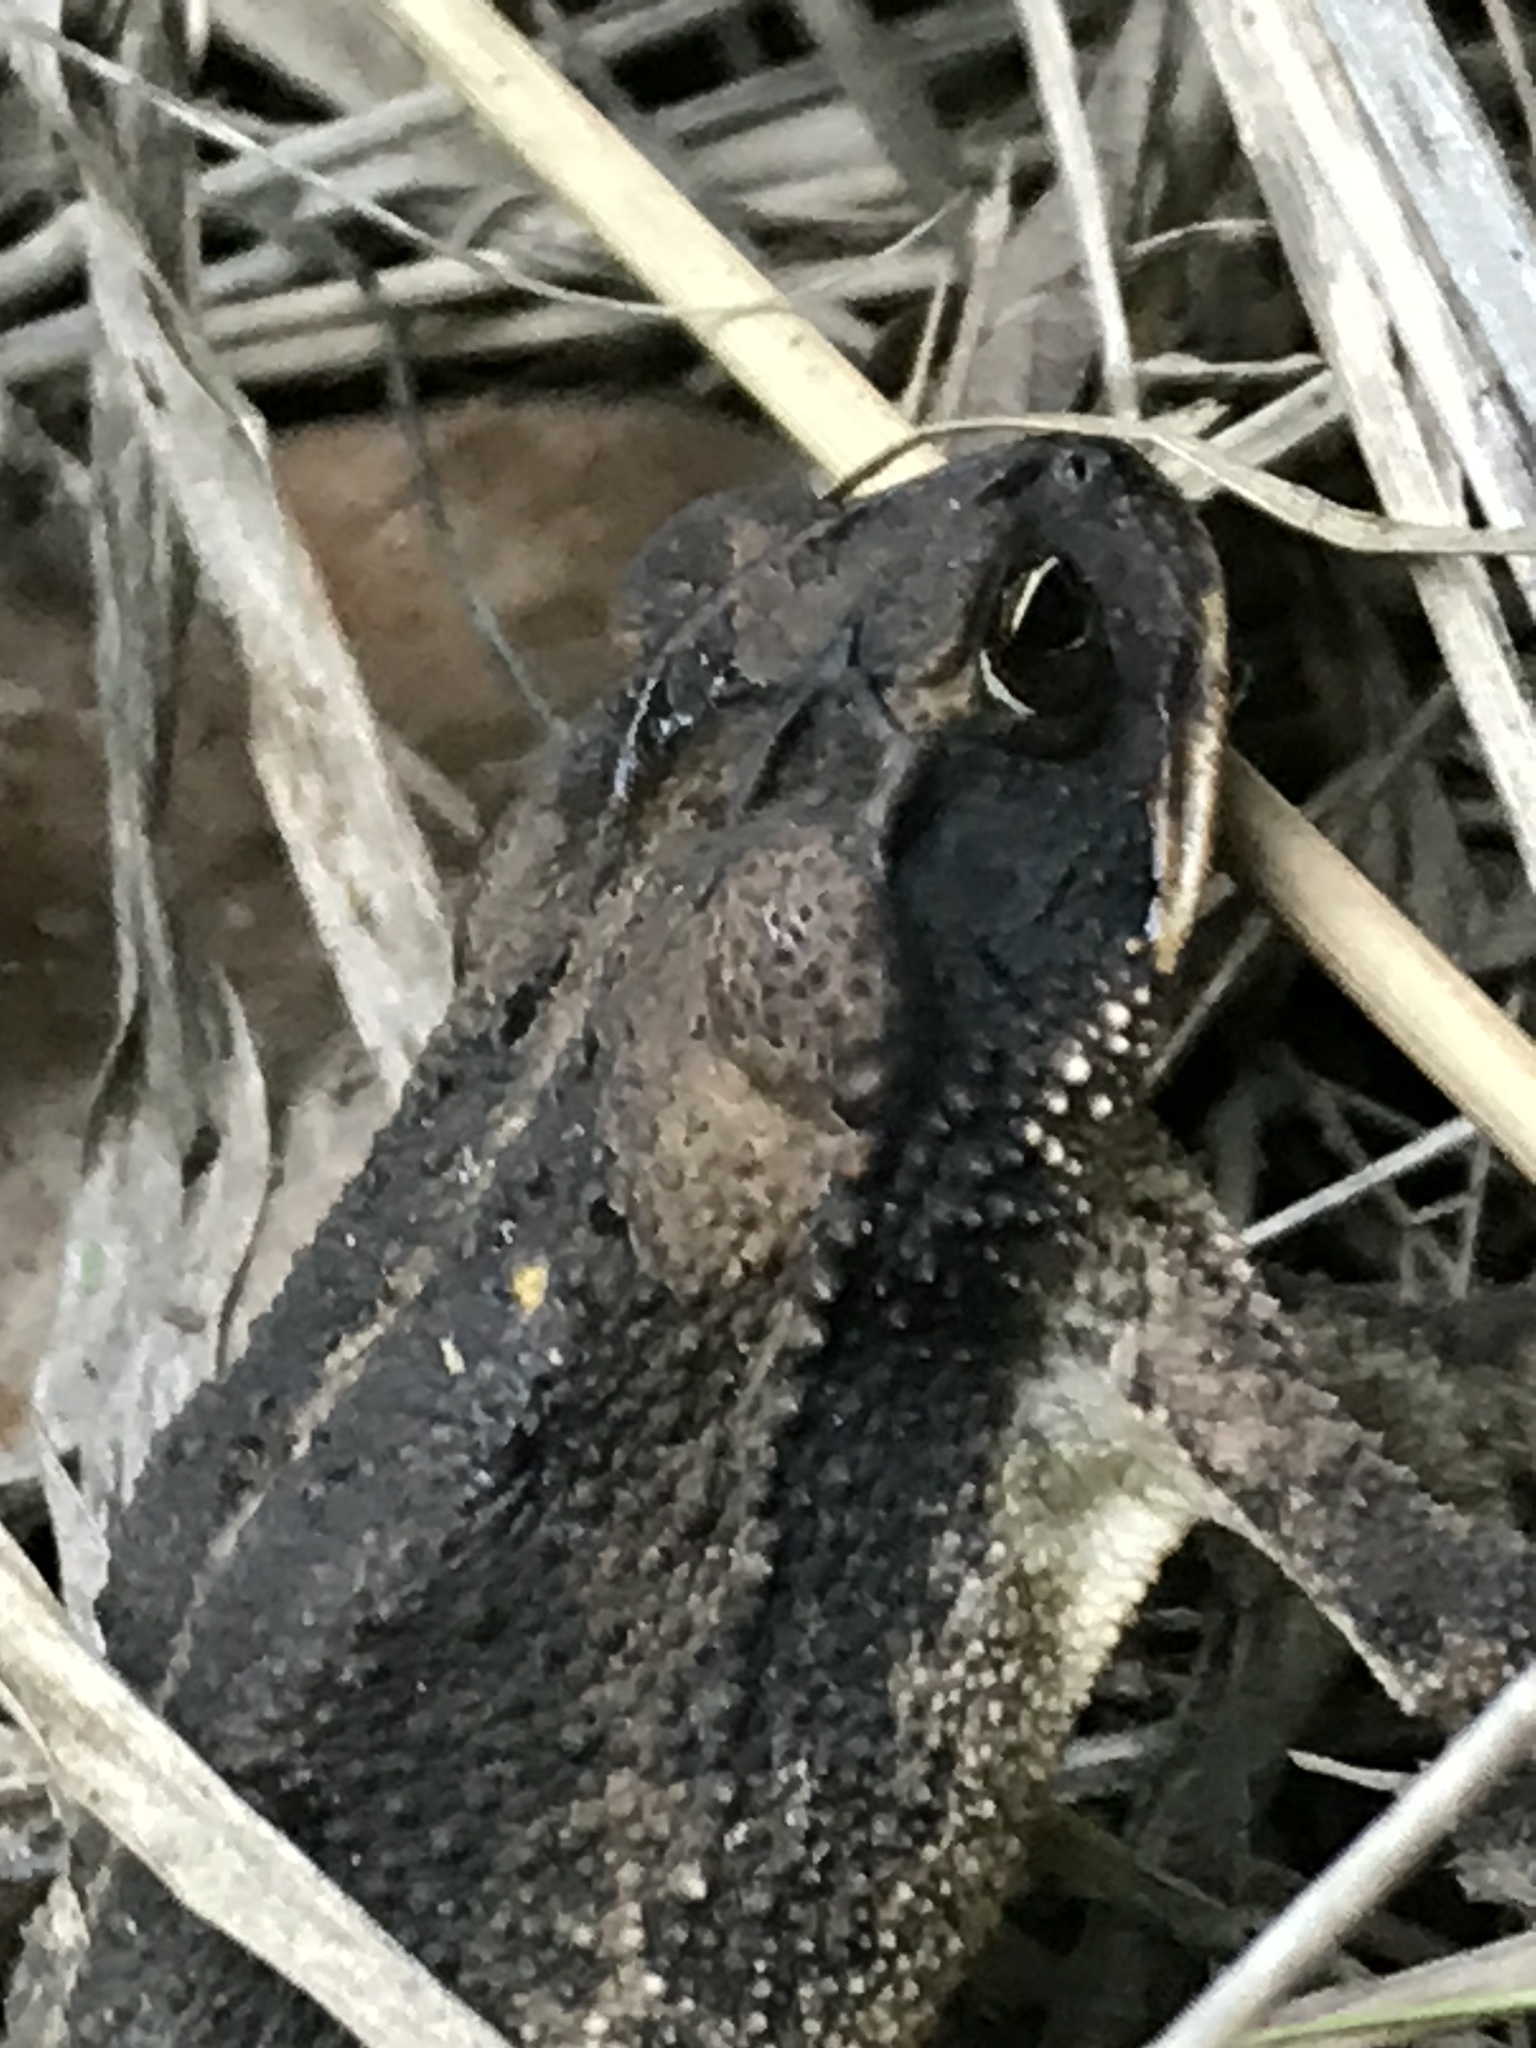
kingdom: Animalia
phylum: Chordata
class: Amphibia
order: Anura
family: Bufonidae
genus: Incilius
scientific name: Incilius nebulifer
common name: Gulf coast toad
